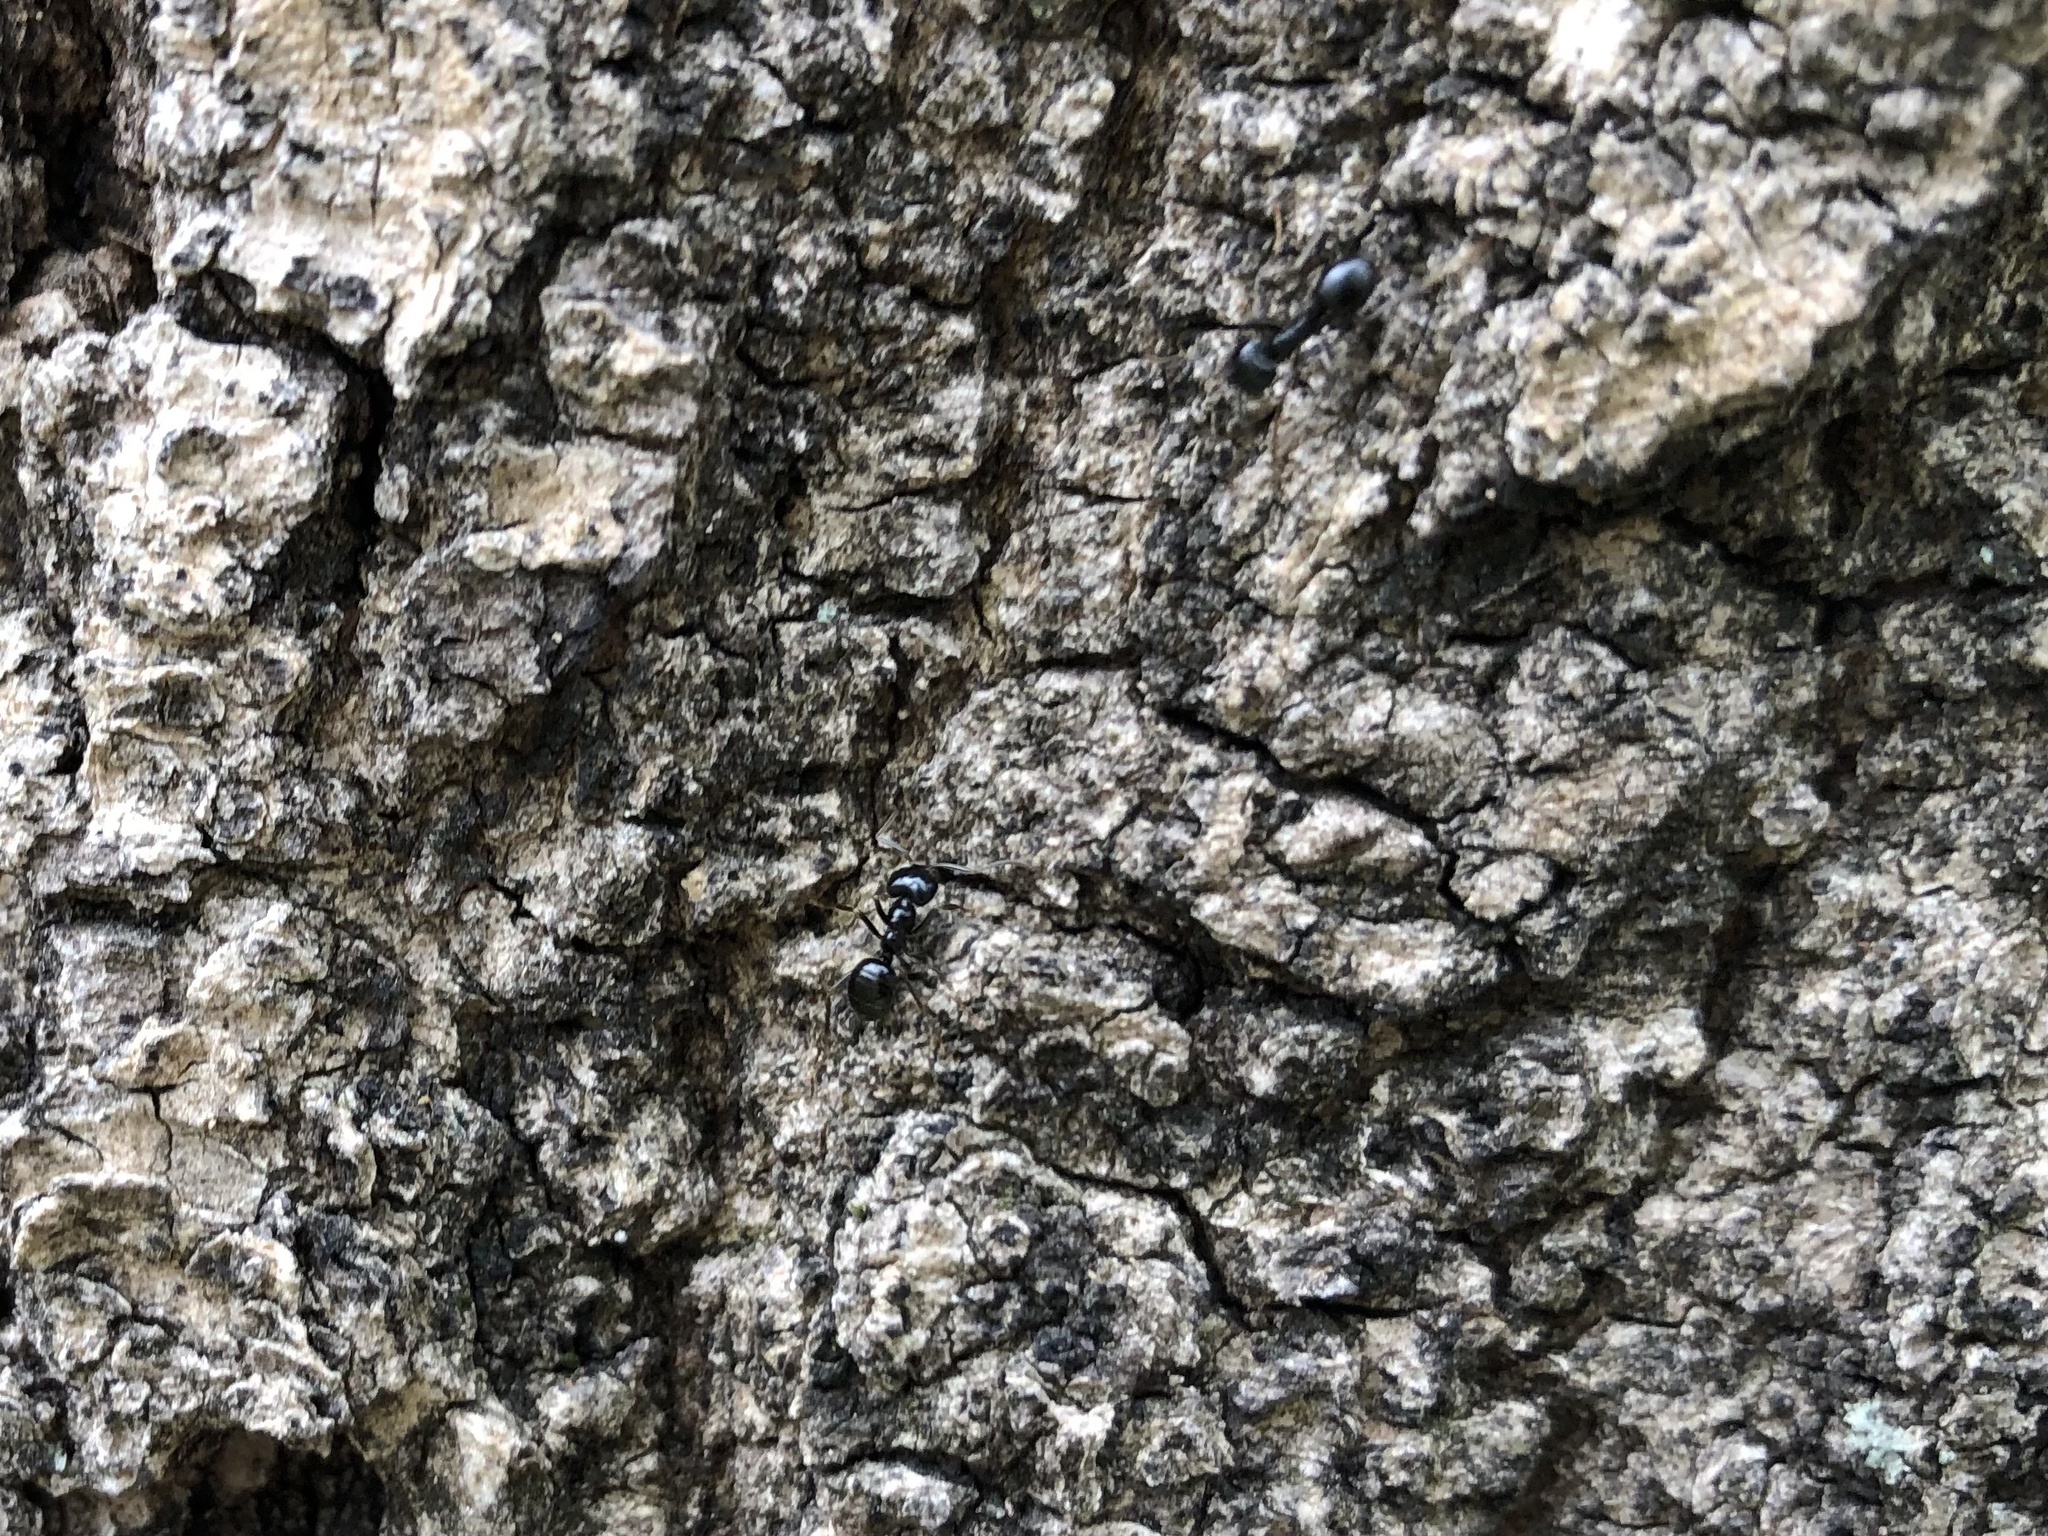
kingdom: Animalia
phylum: Arthropoda
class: Insecta
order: Hymenoptera
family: Formicidae
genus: Lasius
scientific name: Lasius fuliginosus
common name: Jet ant
